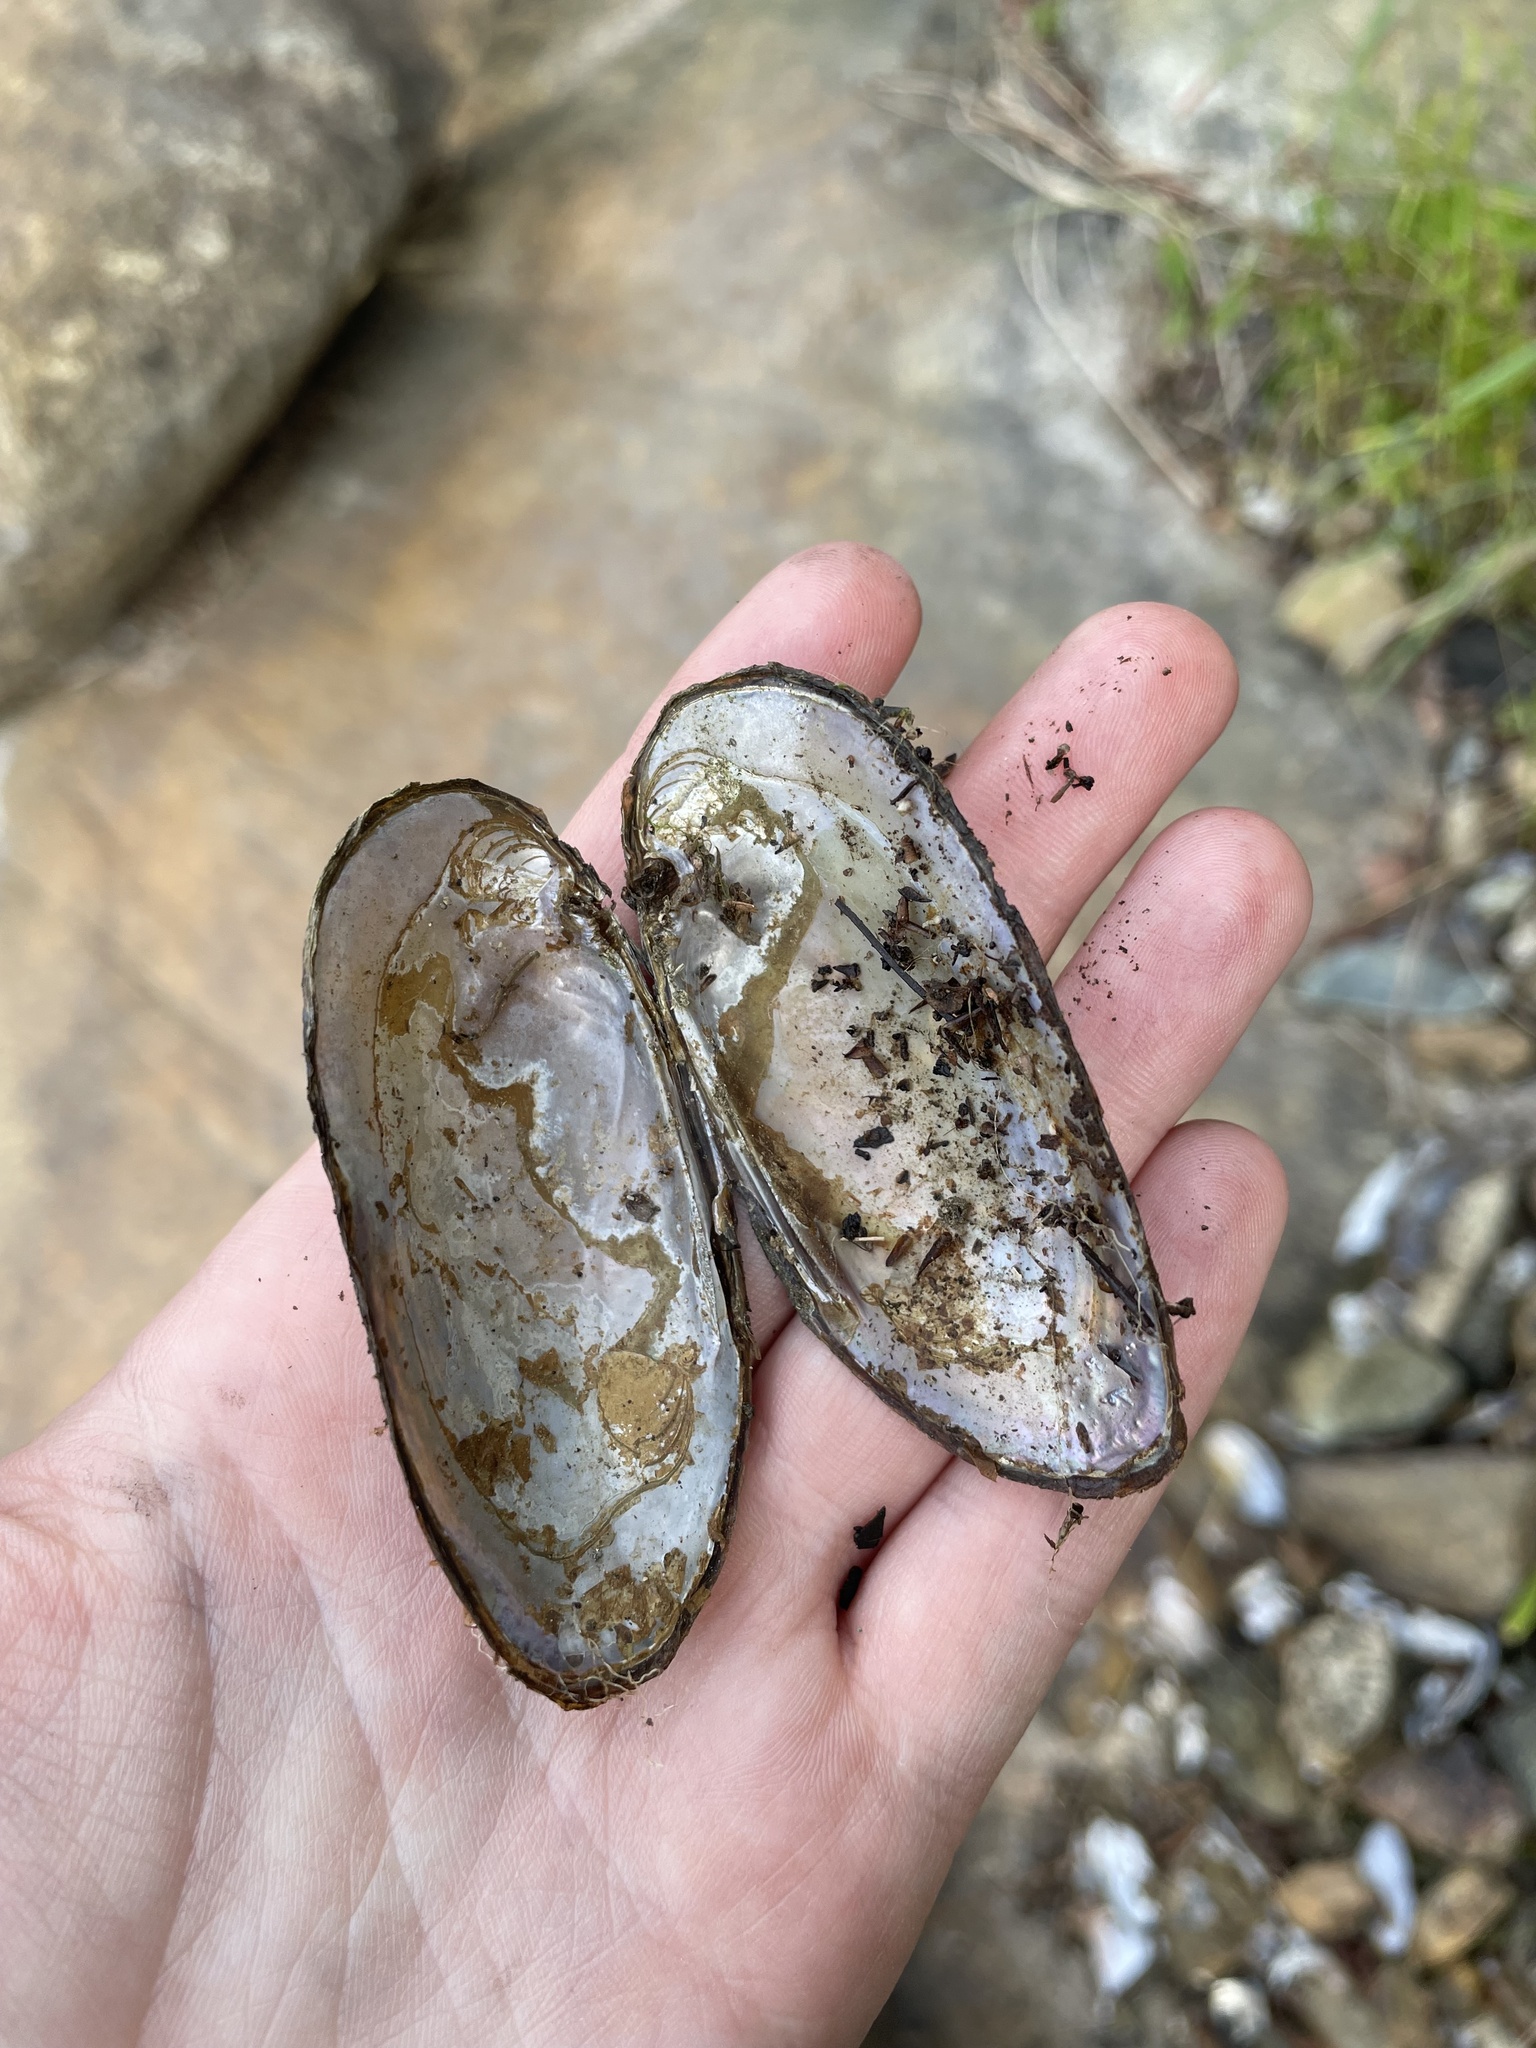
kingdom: Animalia
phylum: Mollusca
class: Bivalvia
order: Unionida
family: Unionidae
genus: Elliptio
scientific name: Elliptio complanata
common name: Eastern elliptio
